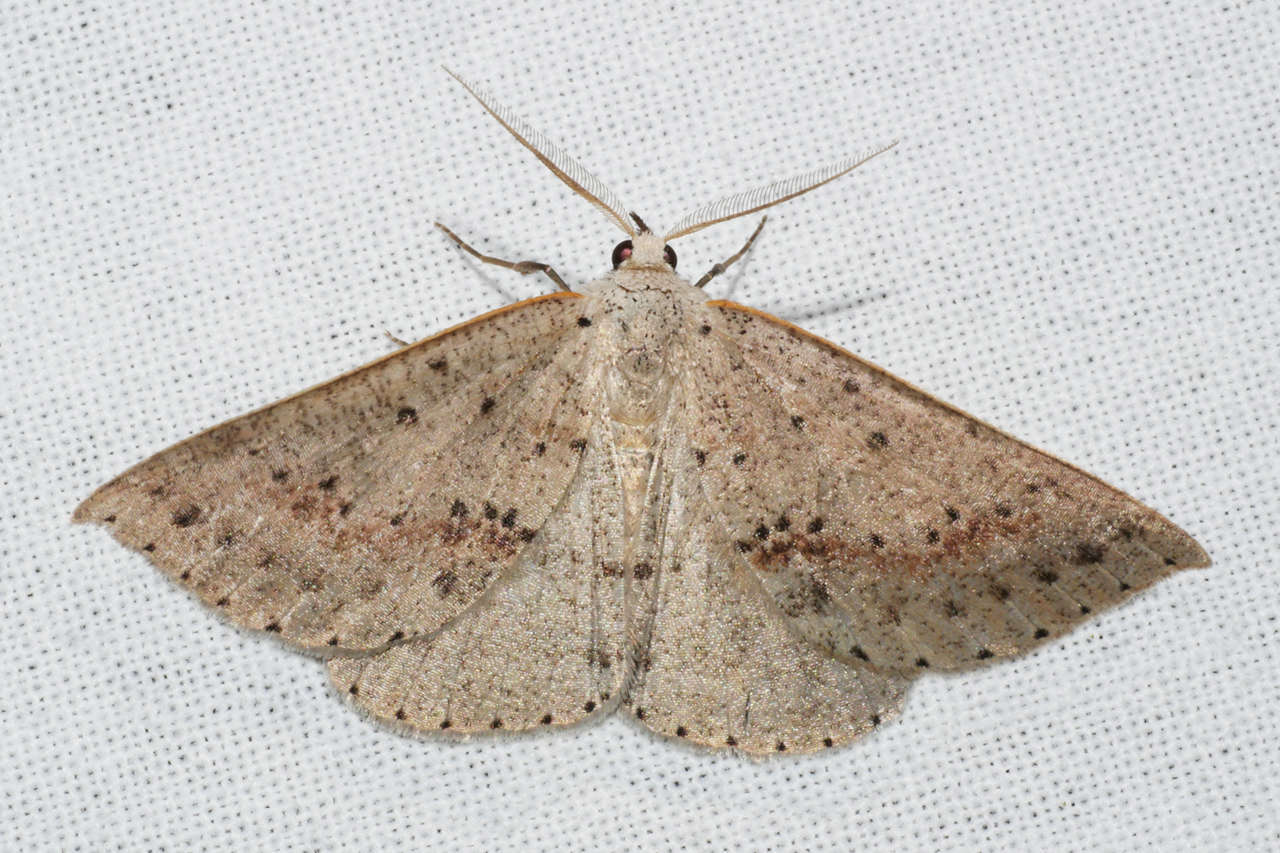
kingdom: Animalia
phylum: Arthropoda
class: Insecta
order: Lepidoptera
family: Geometridae
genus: Nearcha
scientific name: Nearcha ursaria
